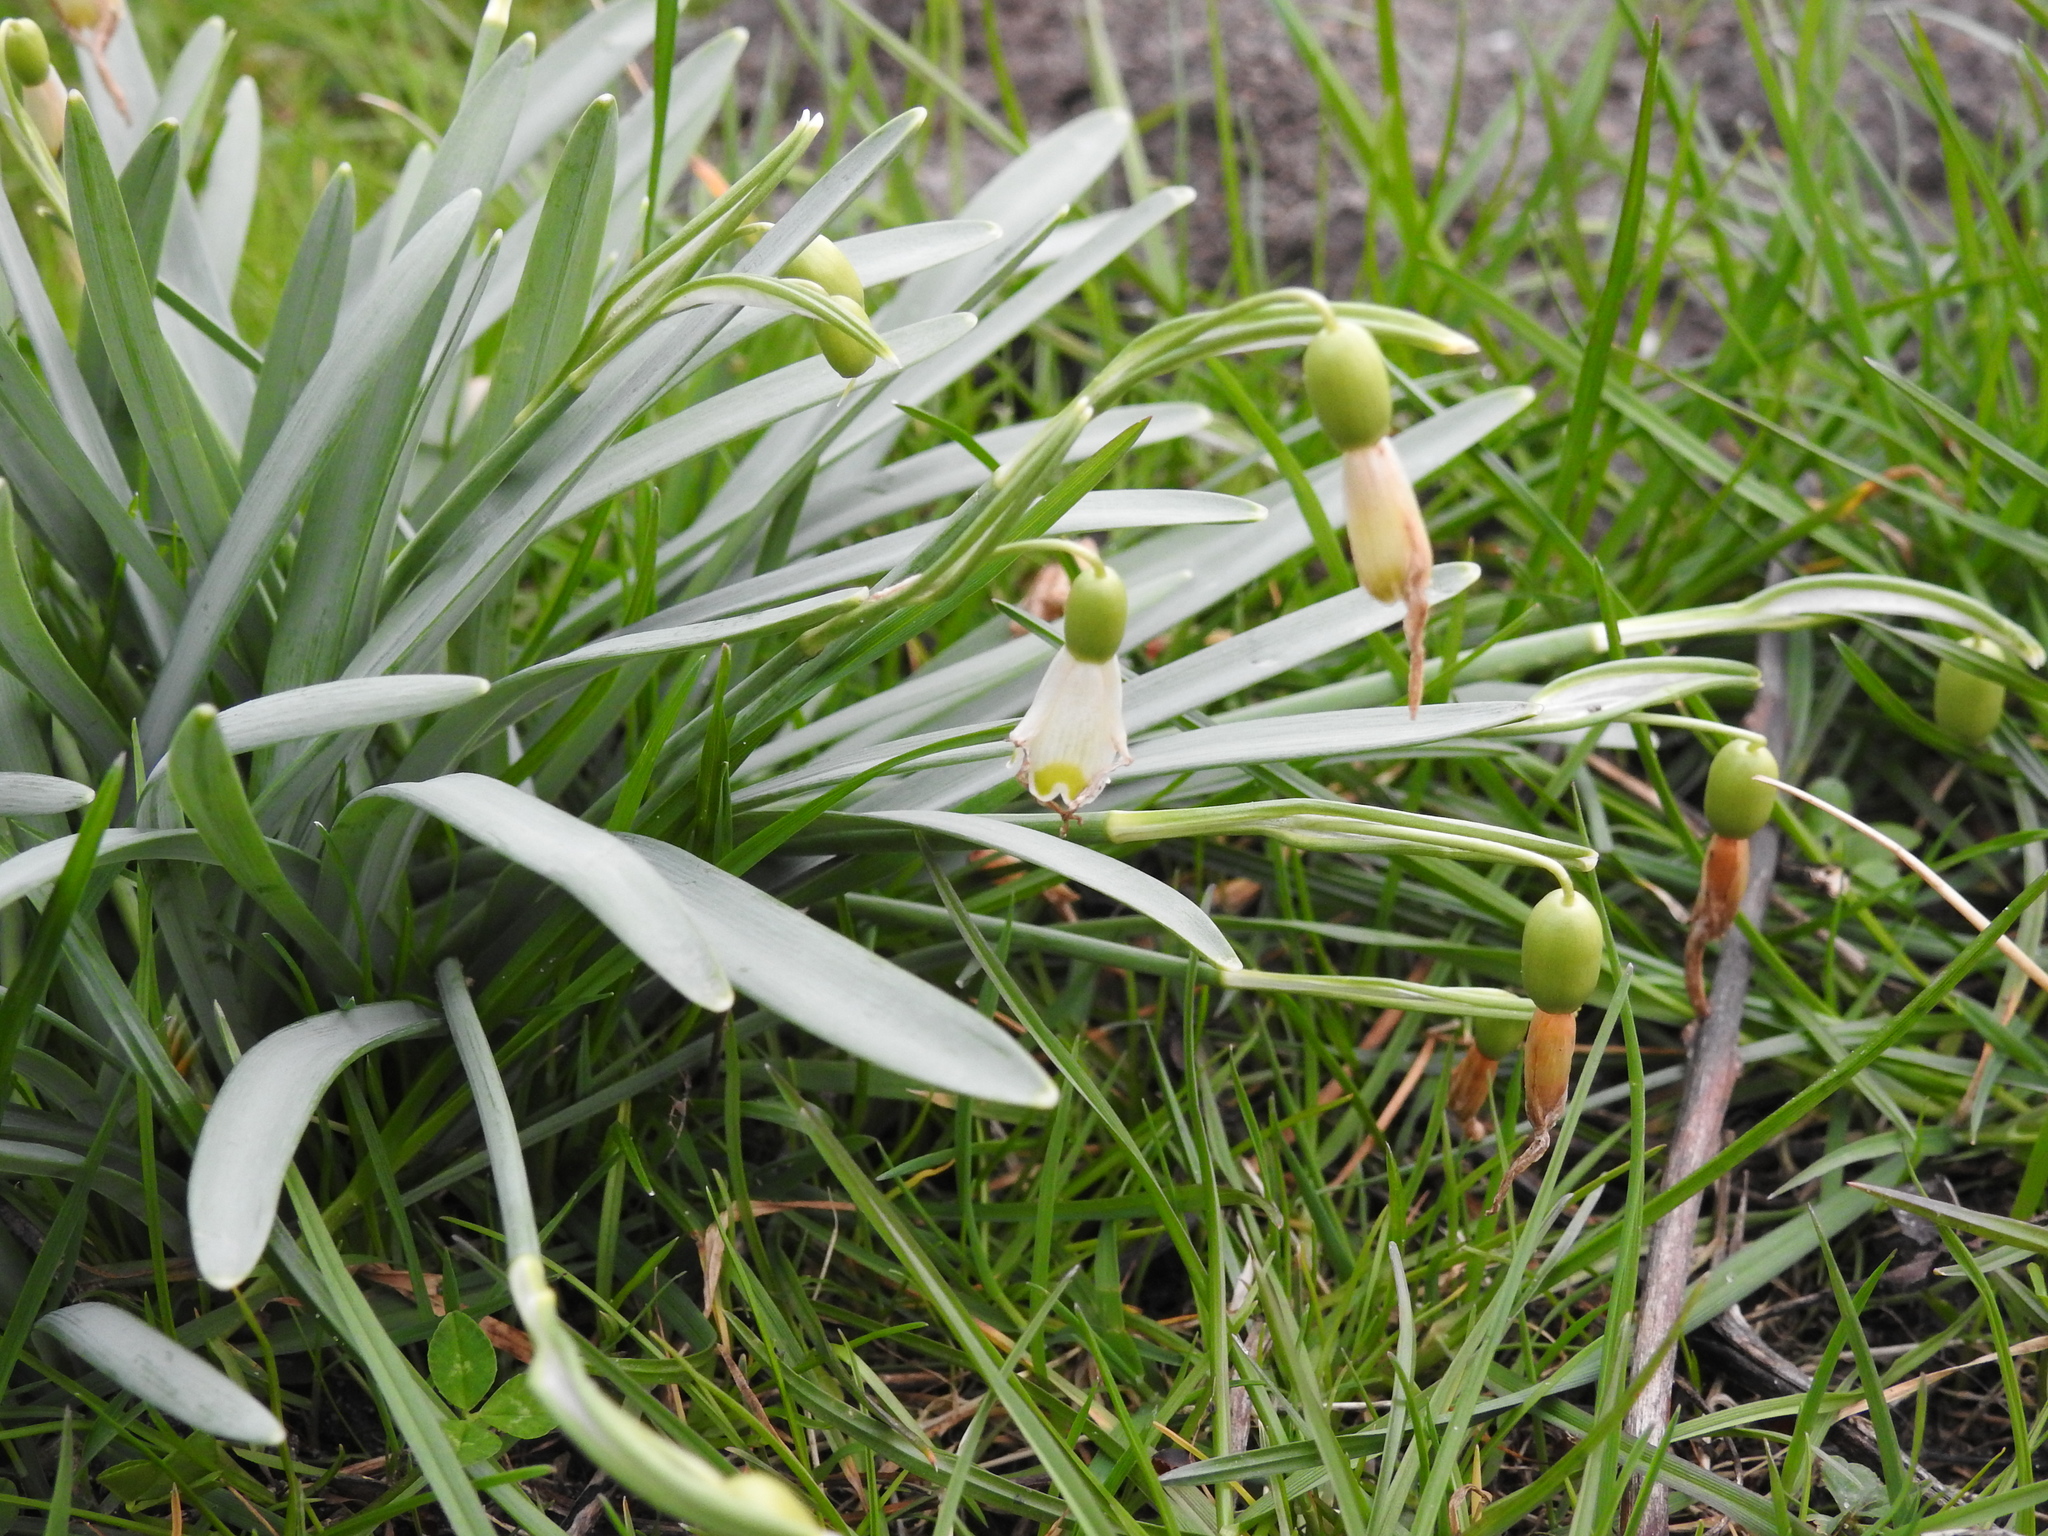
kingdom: Plantae
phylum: Tracheophyta
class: Liliopsida
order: Asparagales
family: Amaryllidaceae
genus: Galanthus
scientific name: Galanthus nivalis
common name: Snowdrop
